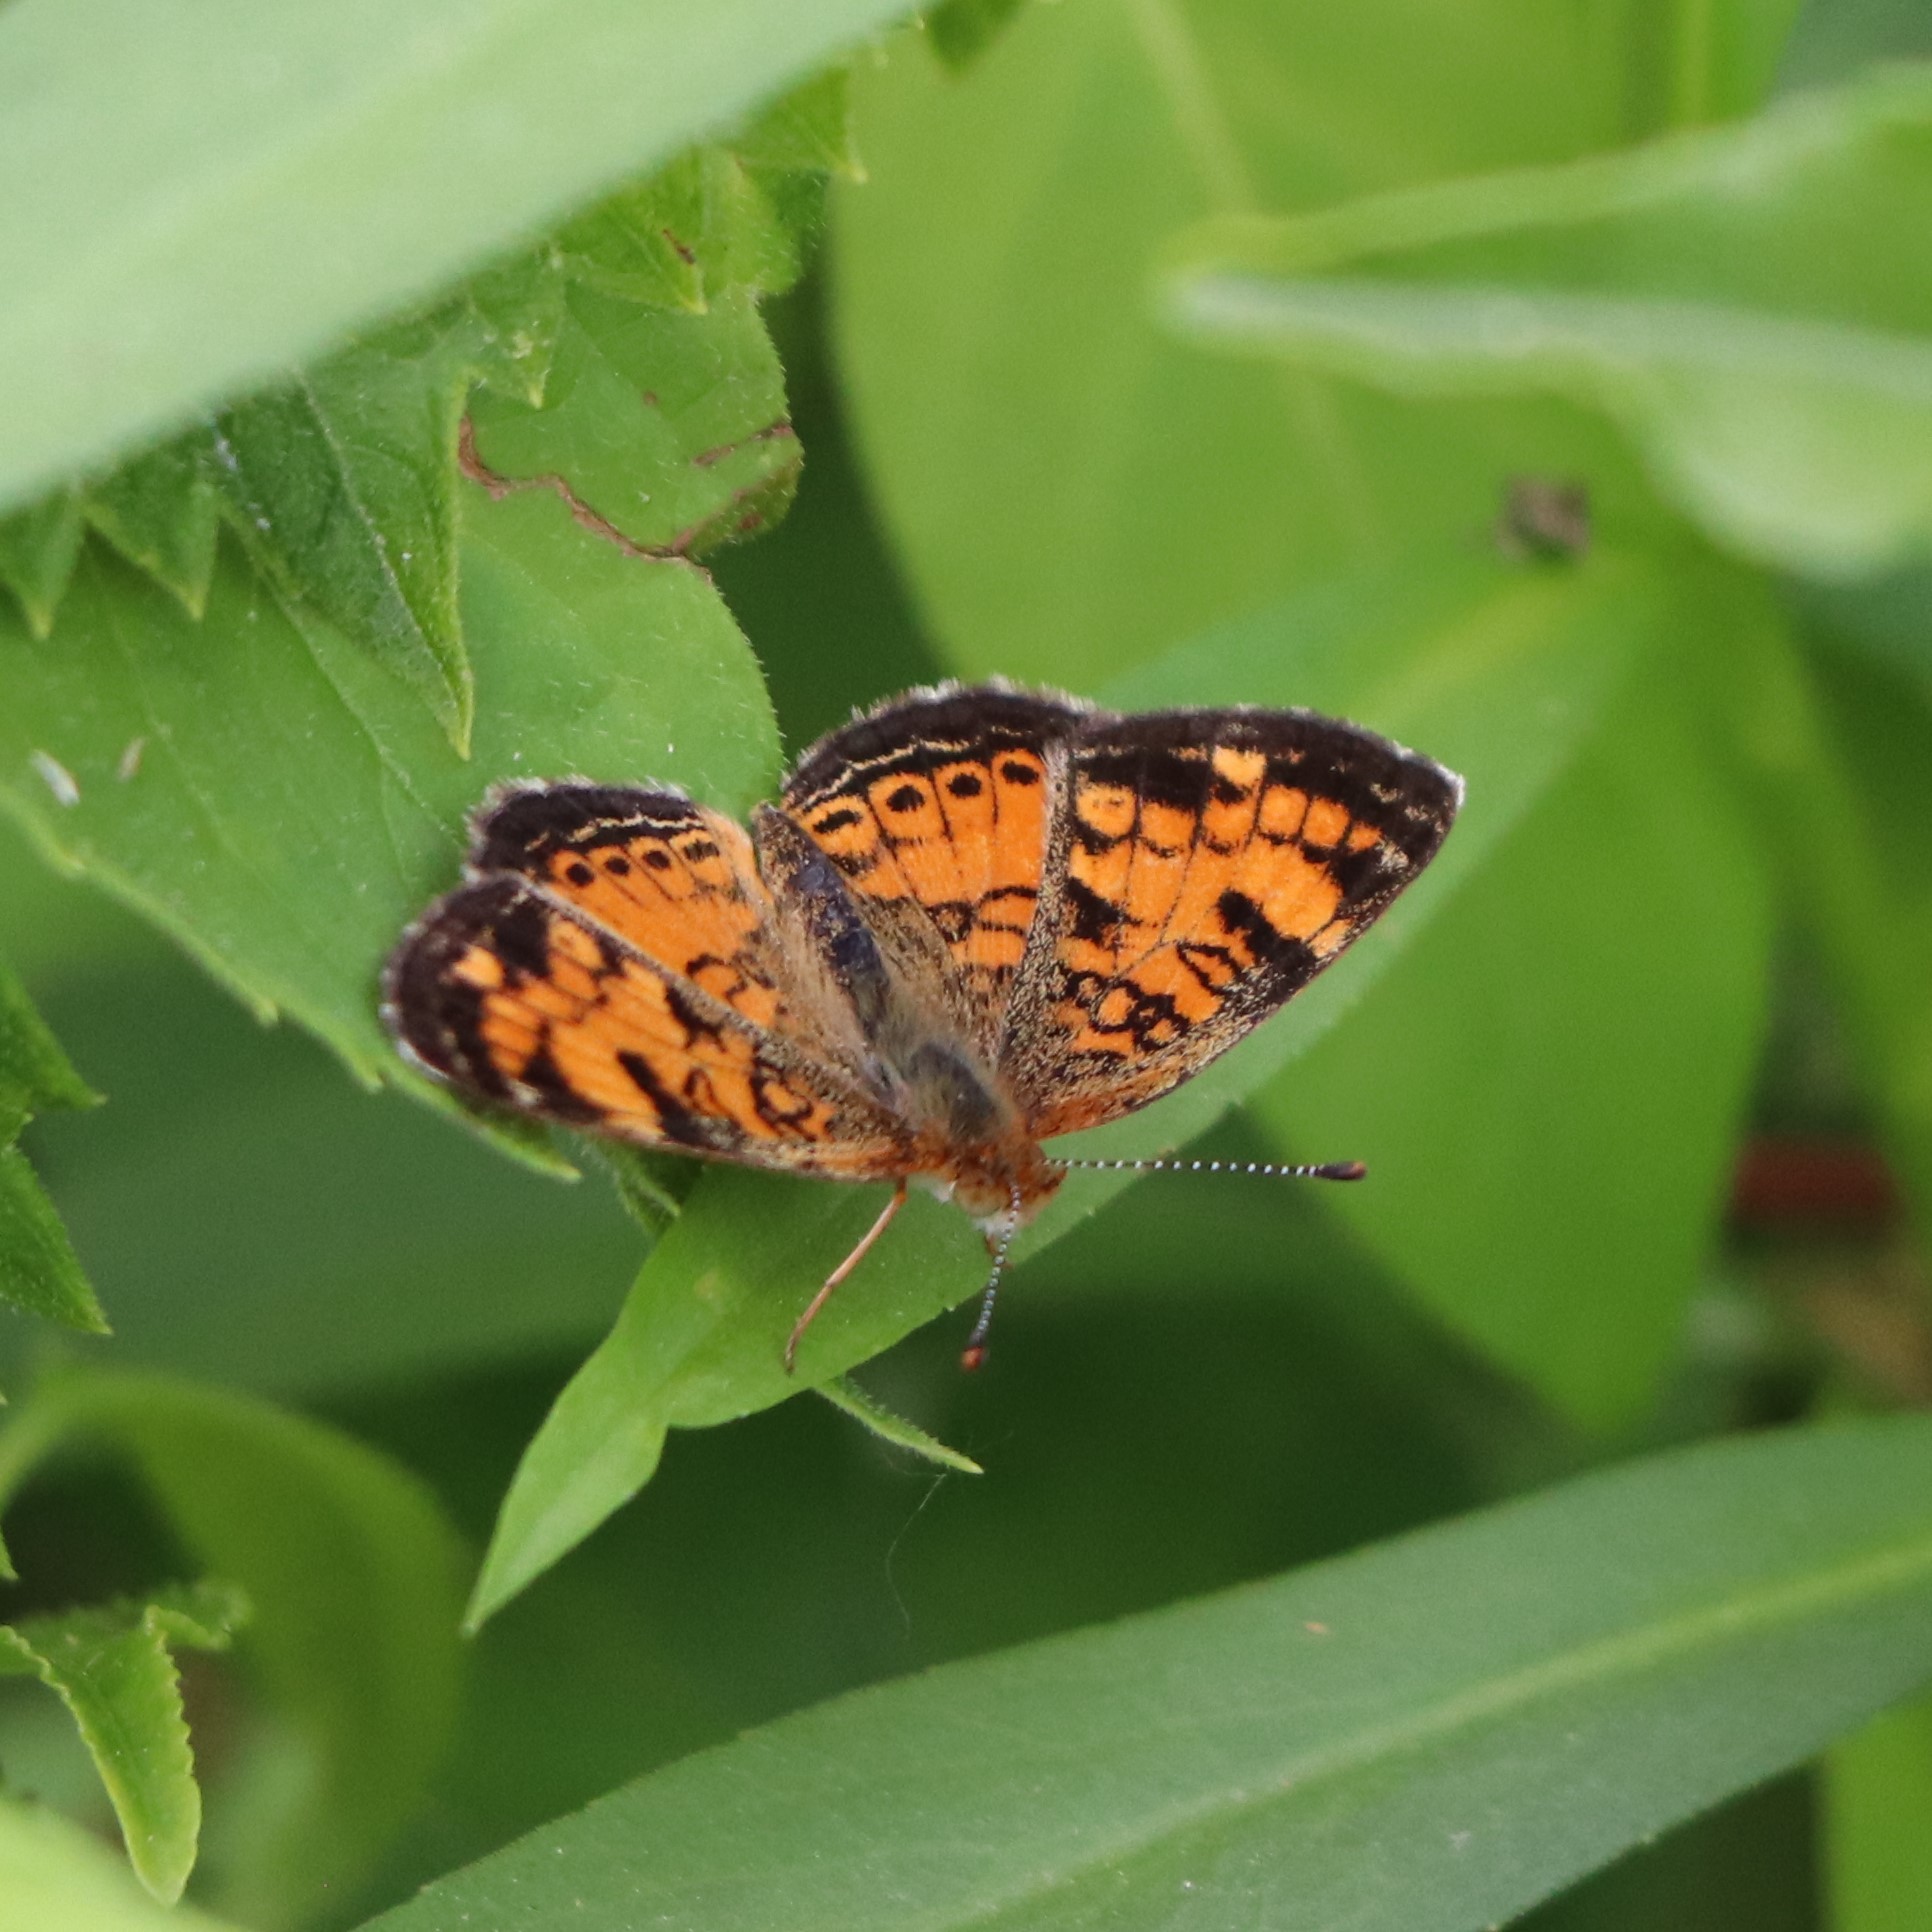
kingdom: Animalia
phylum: Arthropoda
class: Insecta
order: Lepidoptera
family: Nymphalidae
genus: Phyciodes
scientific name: Phyciodes tharos
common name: Pearl crescent
